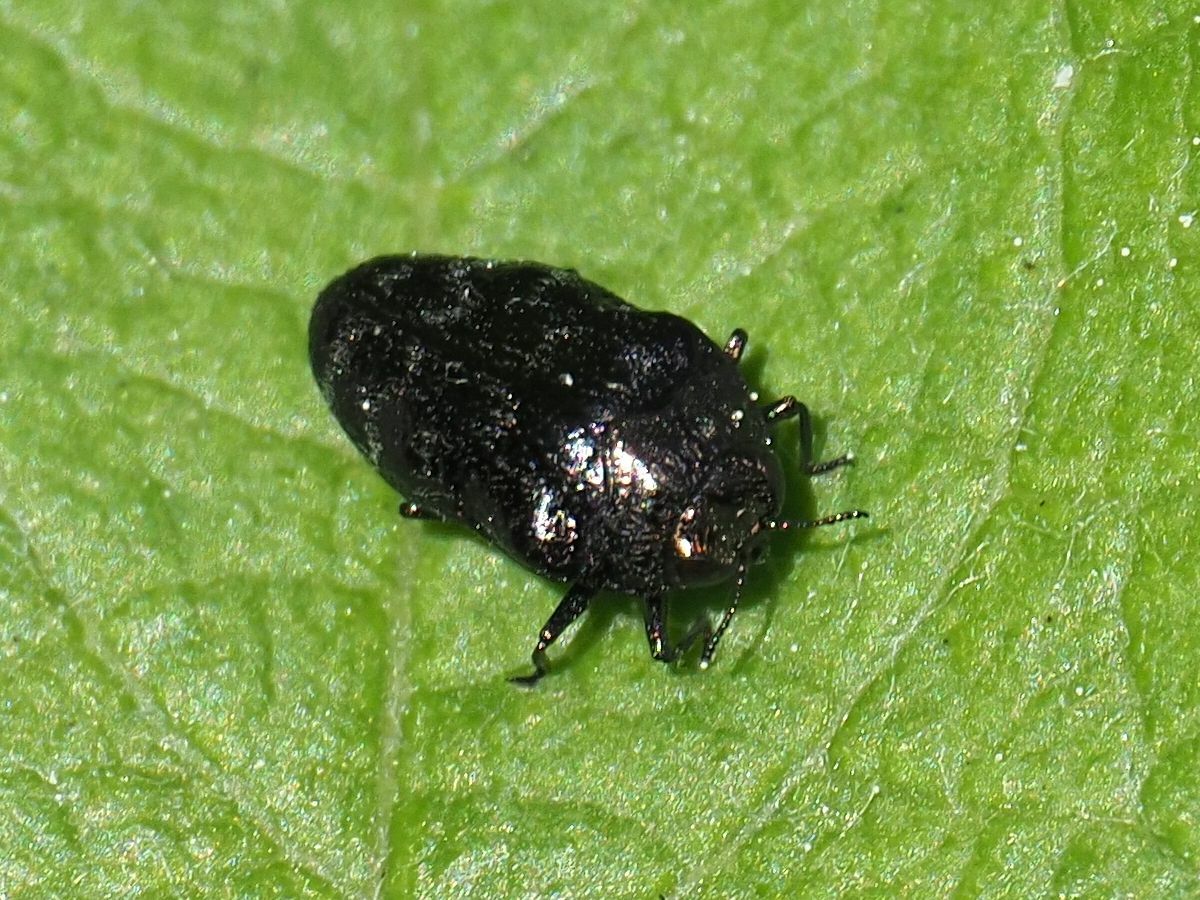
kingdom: Animalia
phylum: Arthropoda
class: Insecta
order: Coleoptera
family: Buprestidae
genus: Trachys
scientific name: Trachys minutus
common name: Metallic wood-boring beetle
